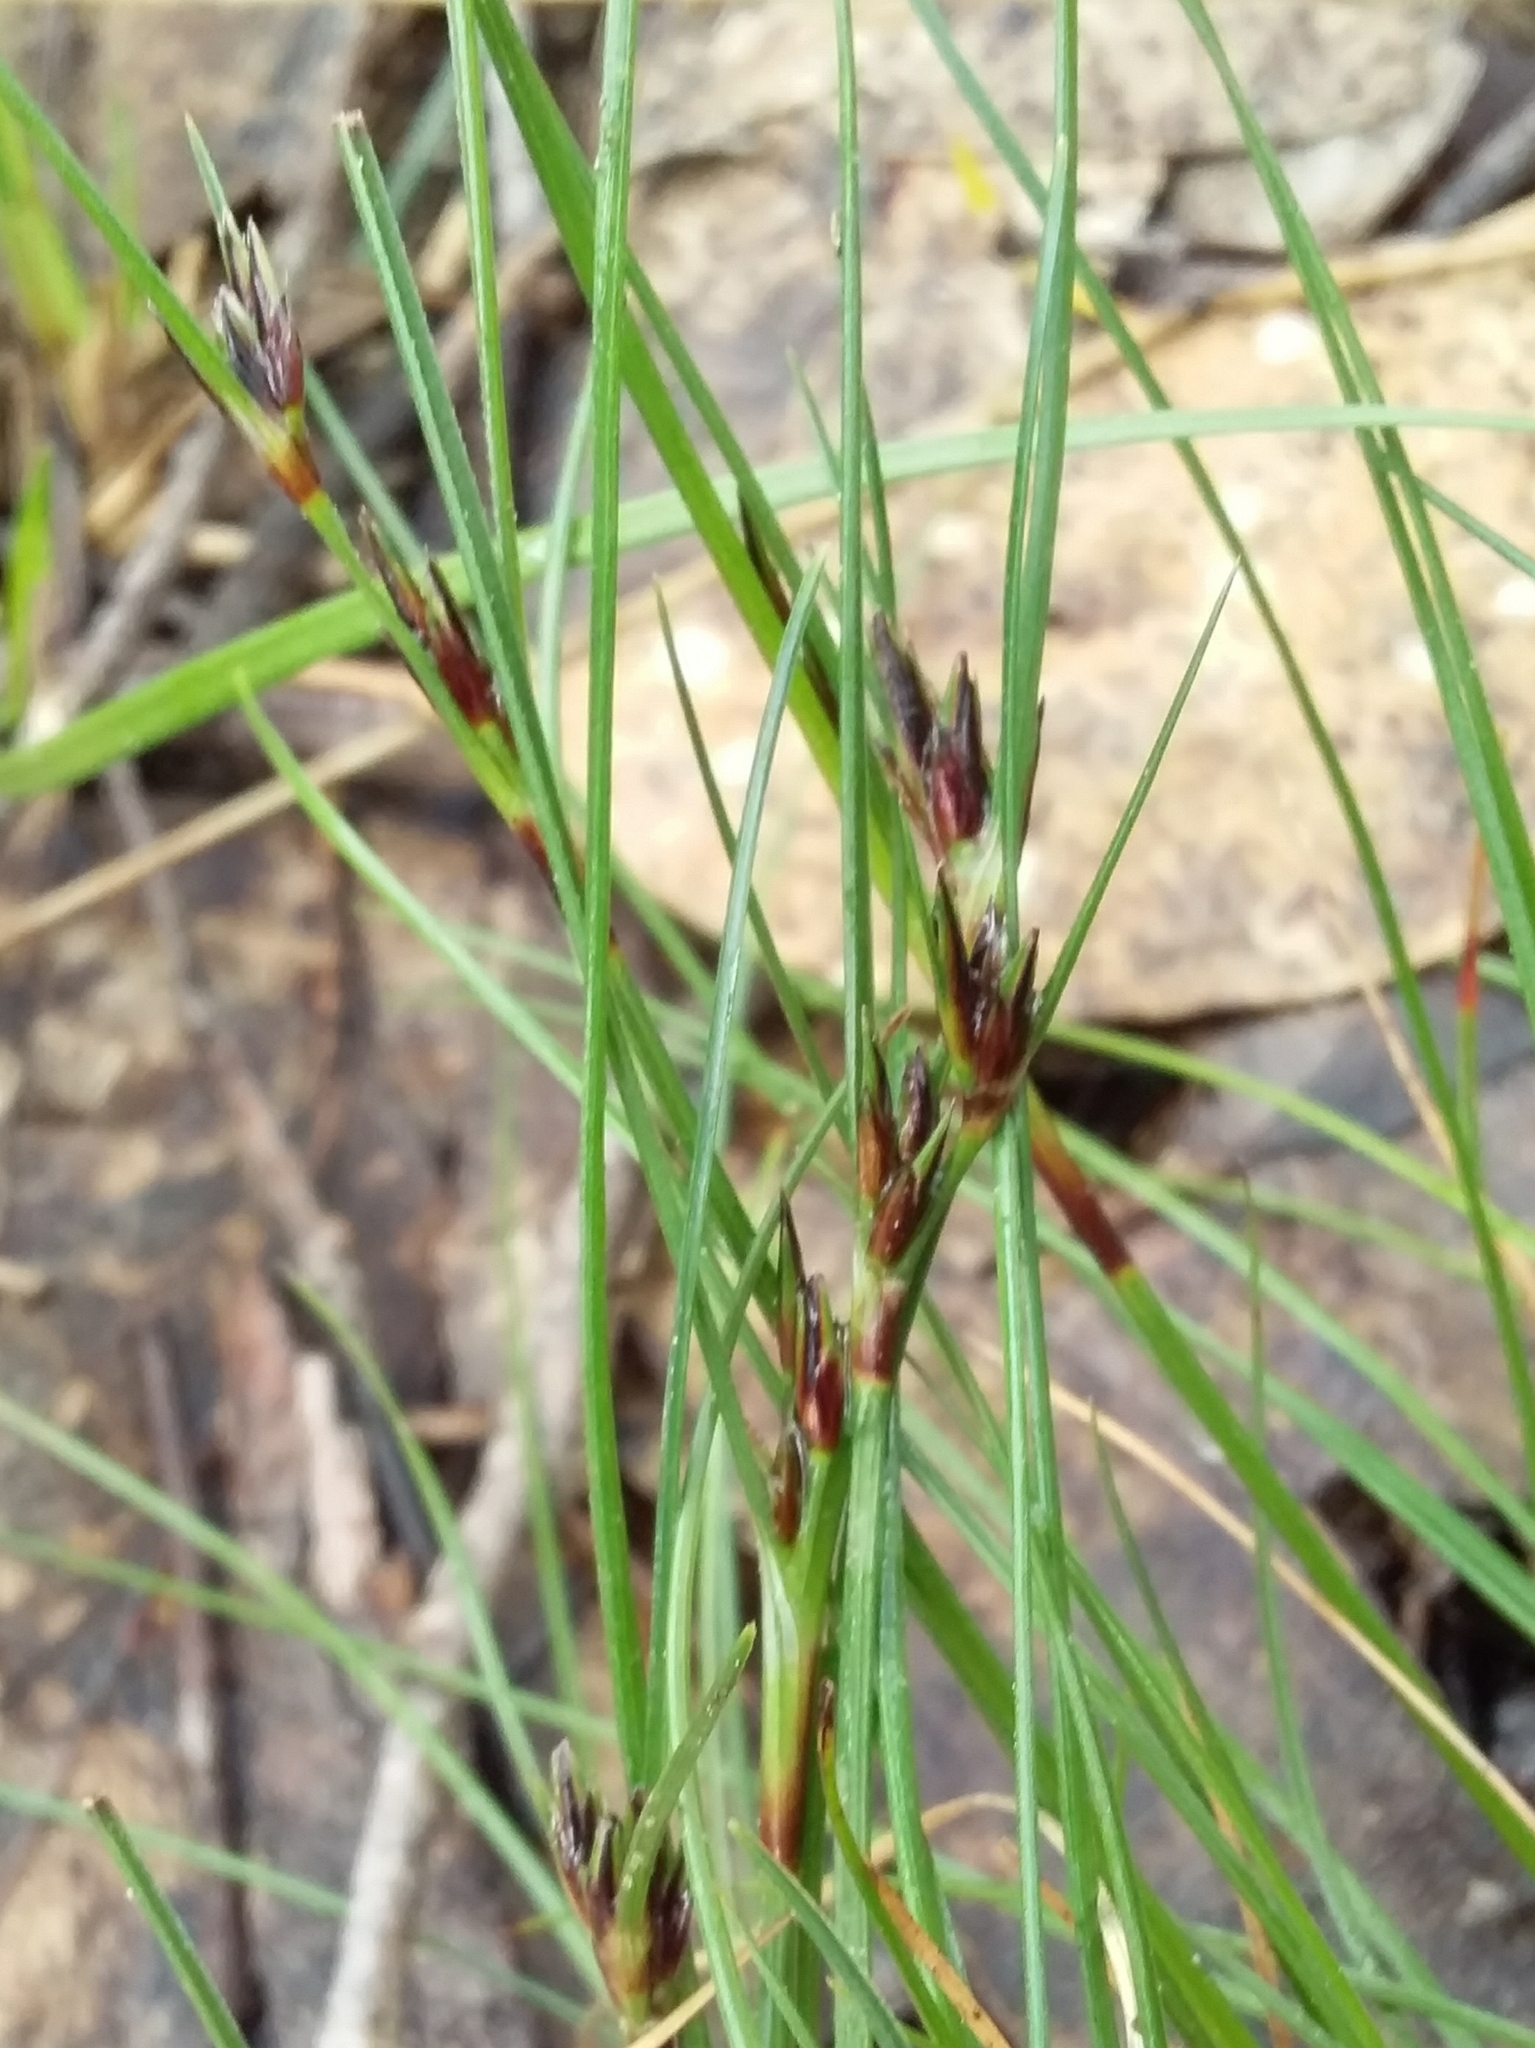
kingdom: Plantae
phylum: Tracheophyta
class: Liliopsida
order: Poales
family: Cyperaceae
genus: Schoenus
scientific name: Schoenus apogon
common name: Smooth bogrush
